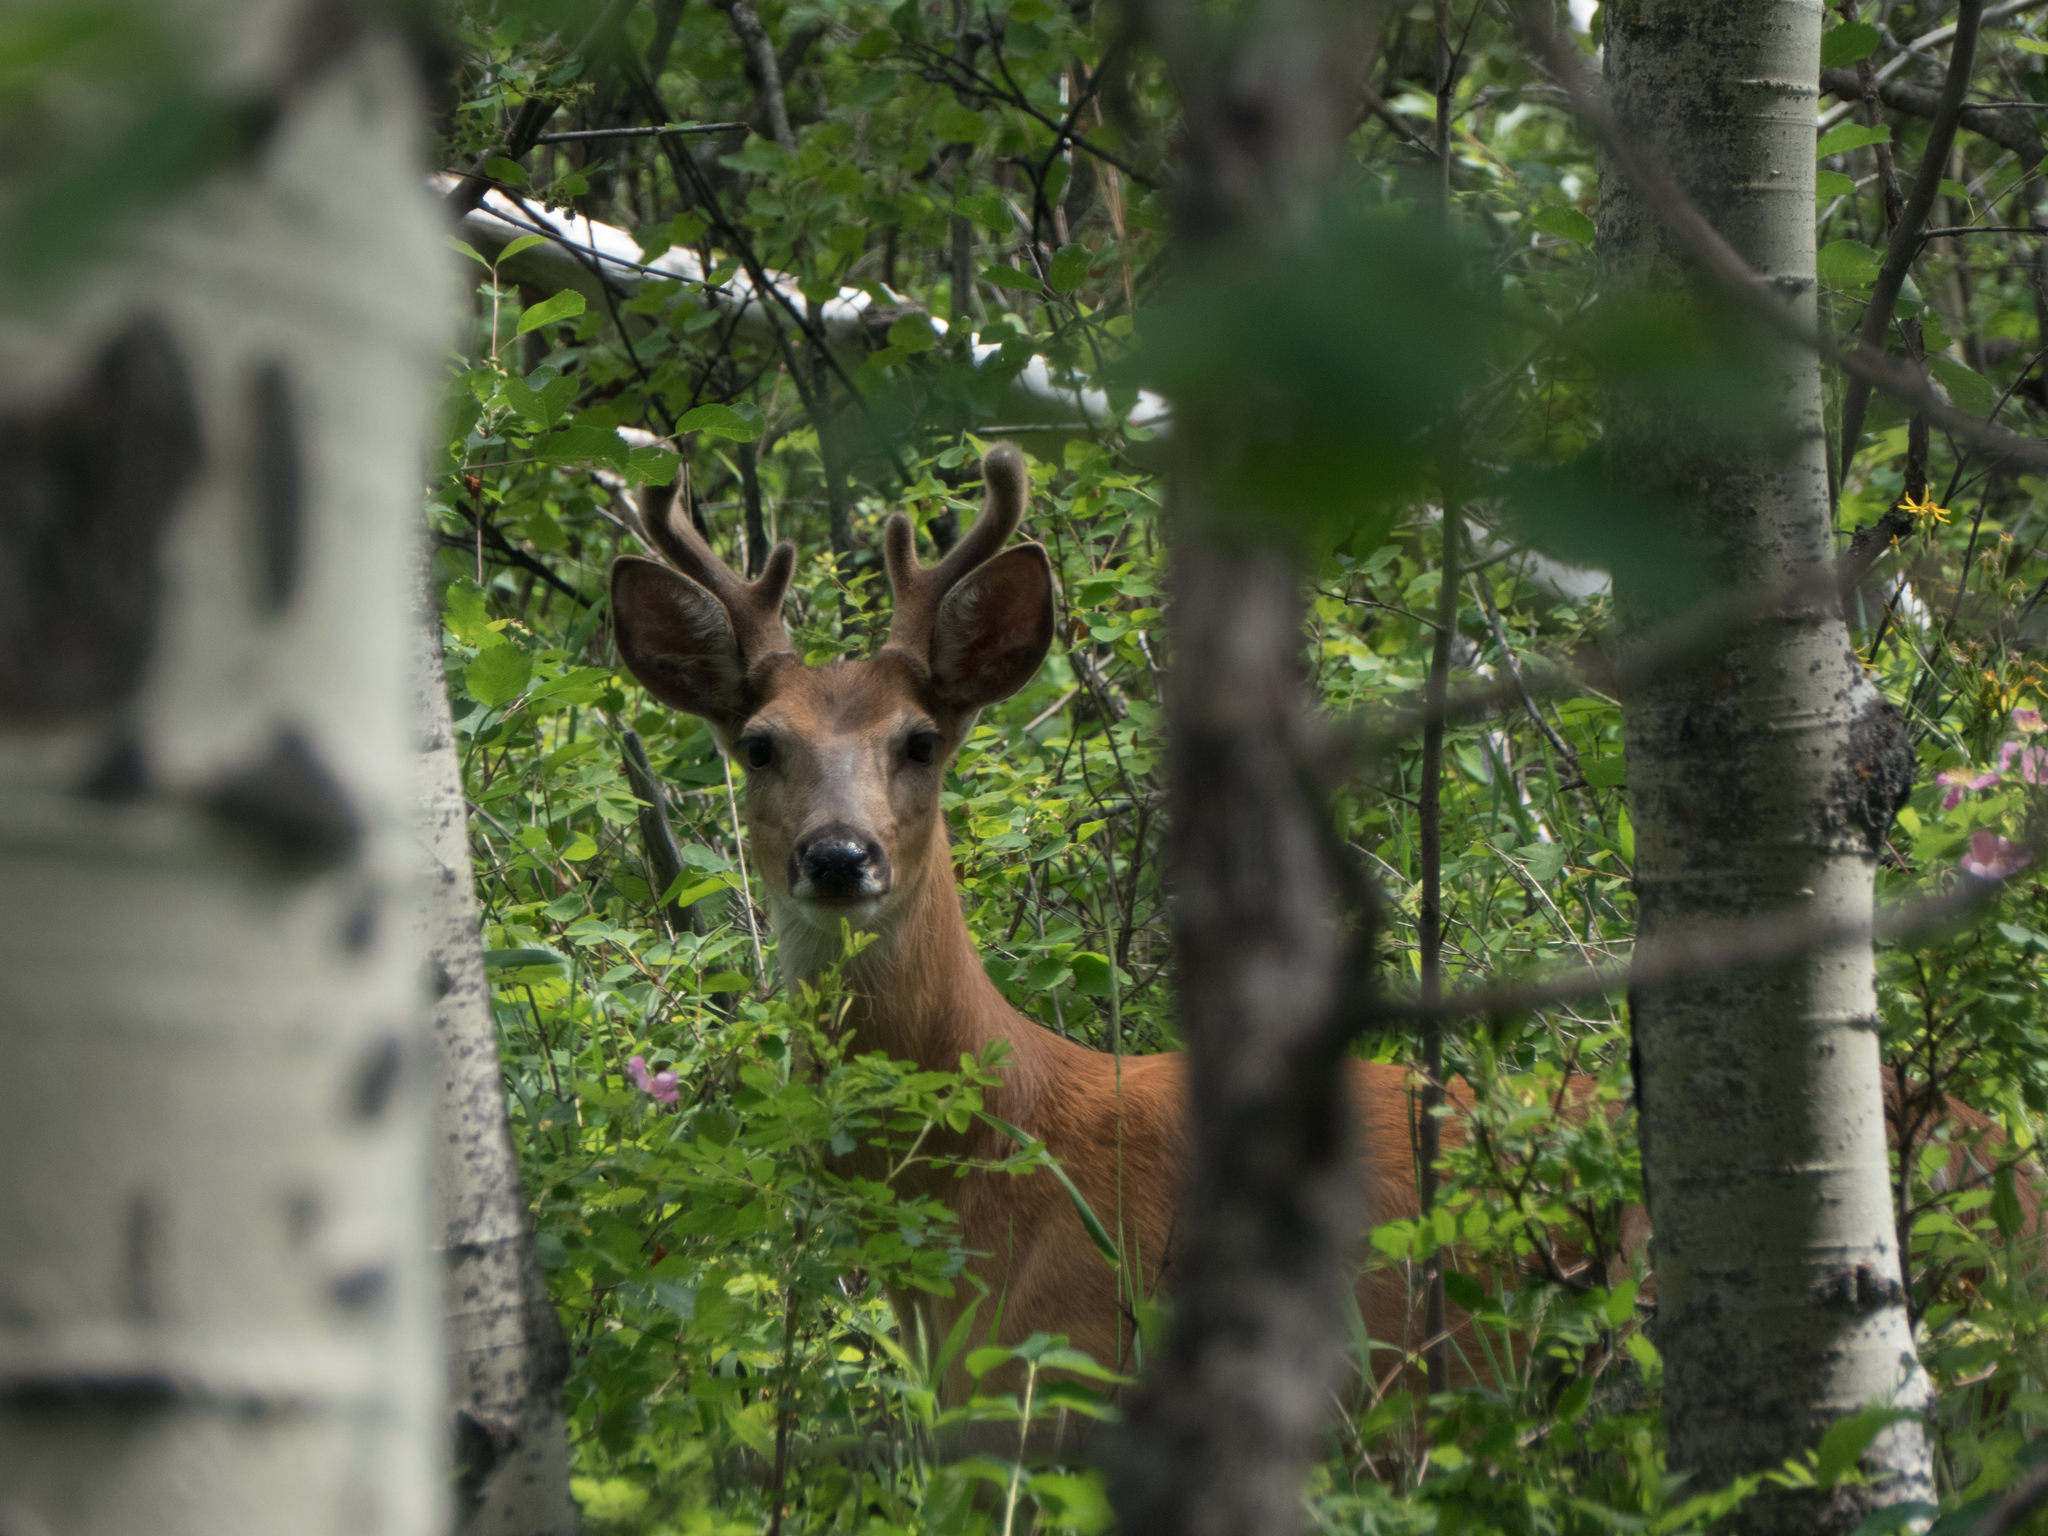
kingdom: Animalia
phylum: Chordata
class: Mammalia
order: Artiodactyla
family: Cervidae
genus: Odocoileus
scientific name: Odocoileus virginianus
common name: White-tailed deer
